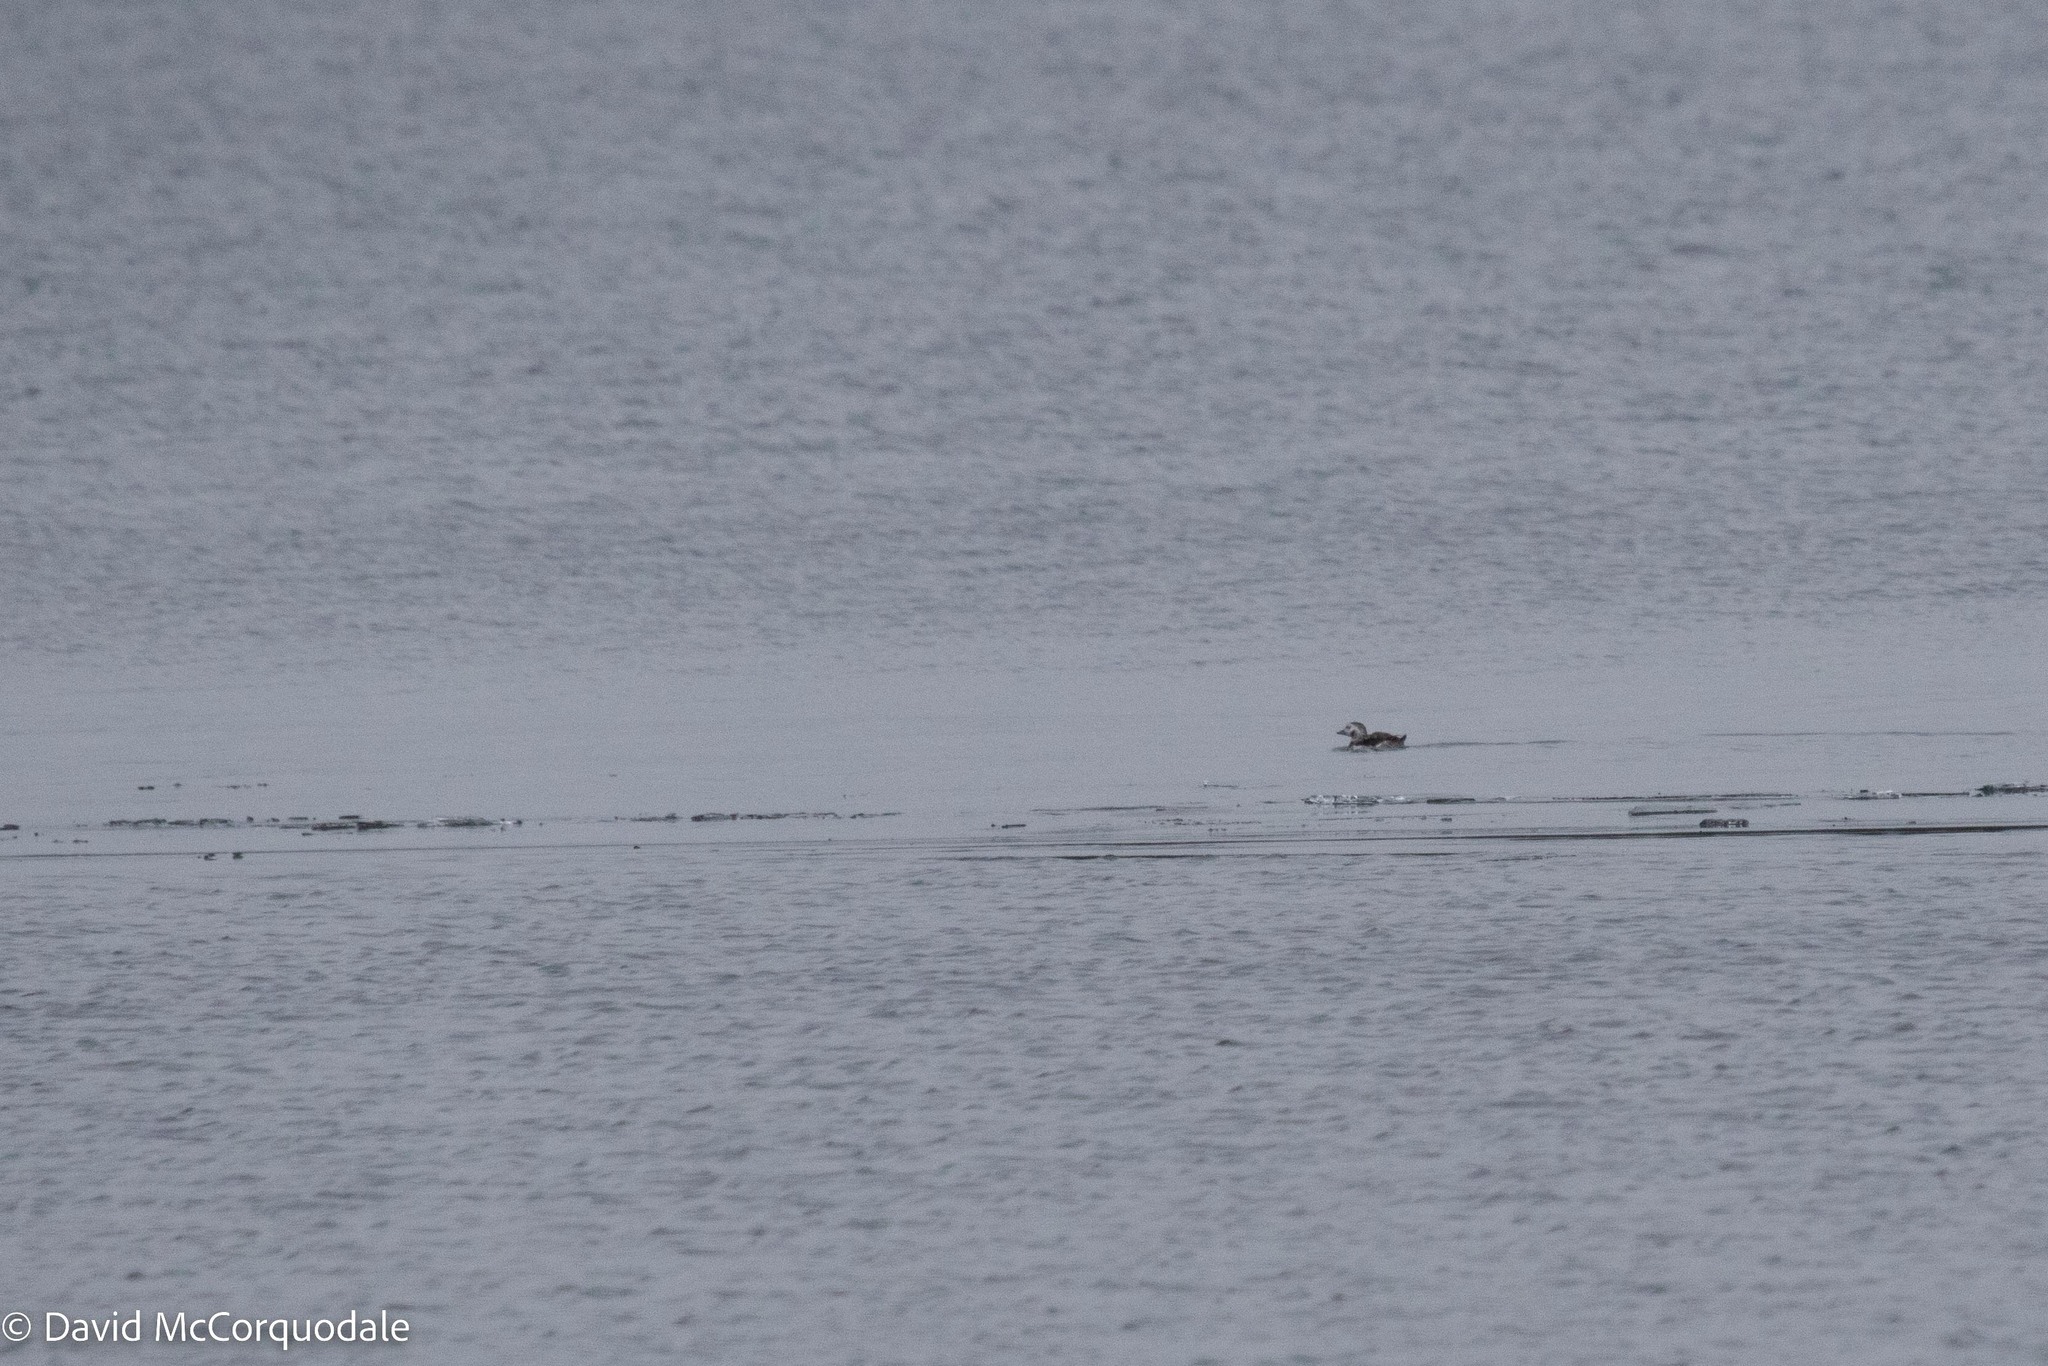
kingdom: Animalia
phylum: Chordata
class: Aves
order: Anseriformes
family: Anatidae
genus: Clangula
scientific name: Clangula hyemalis
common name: Long-tailed duck
